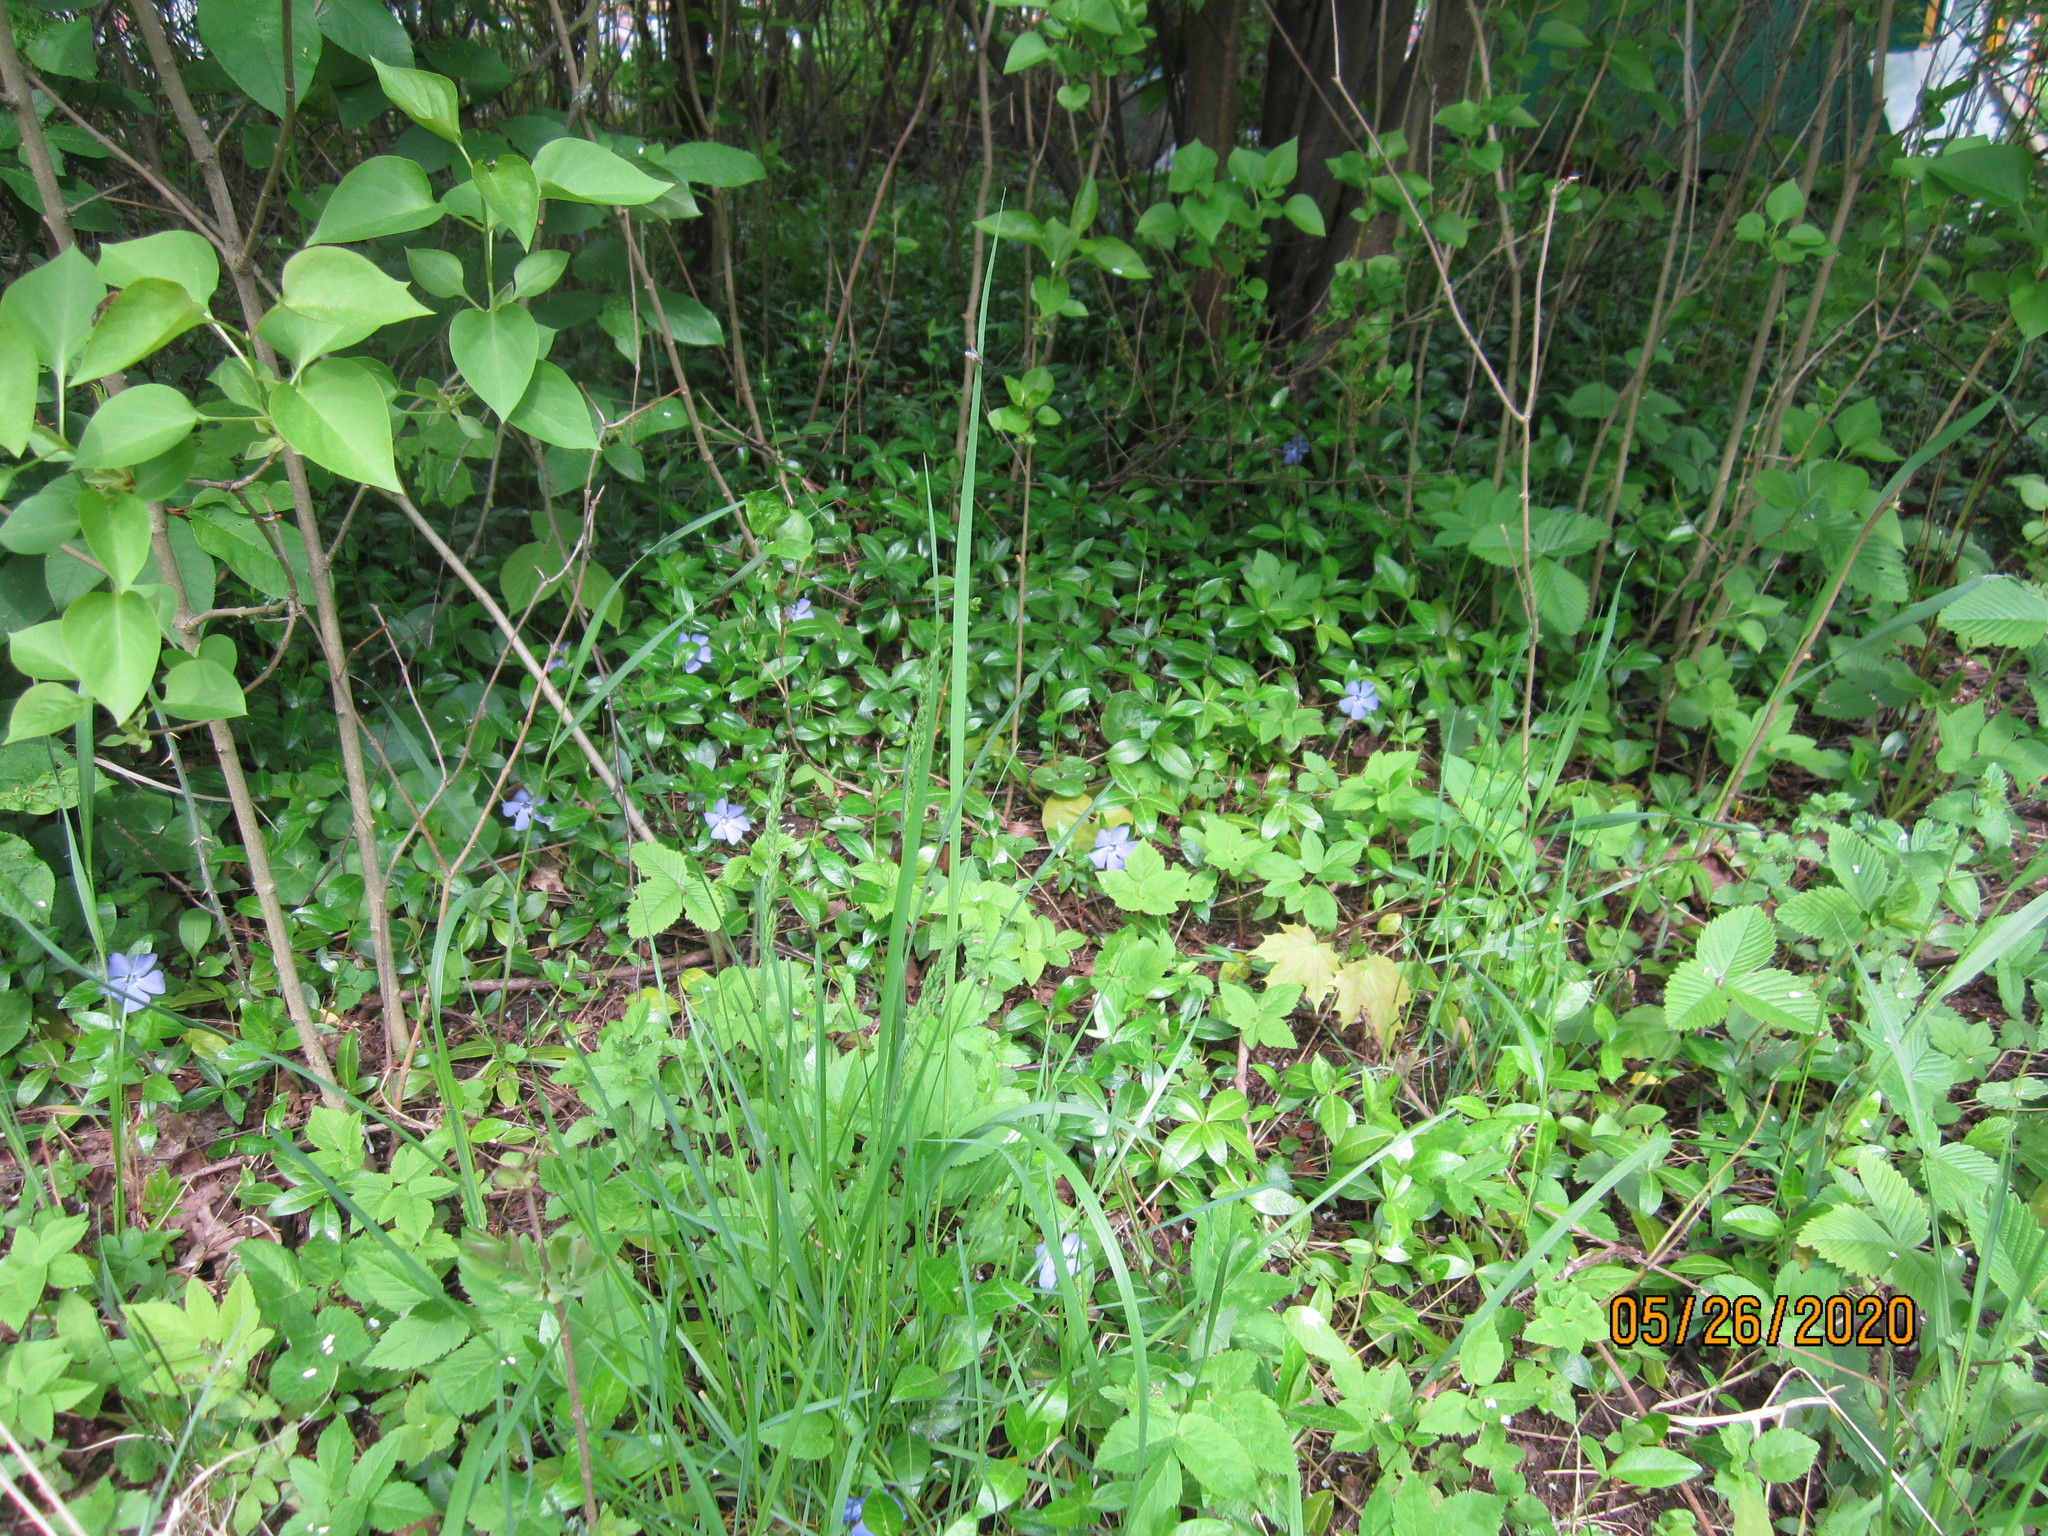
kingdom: Plantae
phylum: Tracheophyta
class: Magnoliopsida
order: Gentianales
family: Apocynaceae
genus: Vinca
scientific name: Vinca minor
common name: Lesser periwinkle
